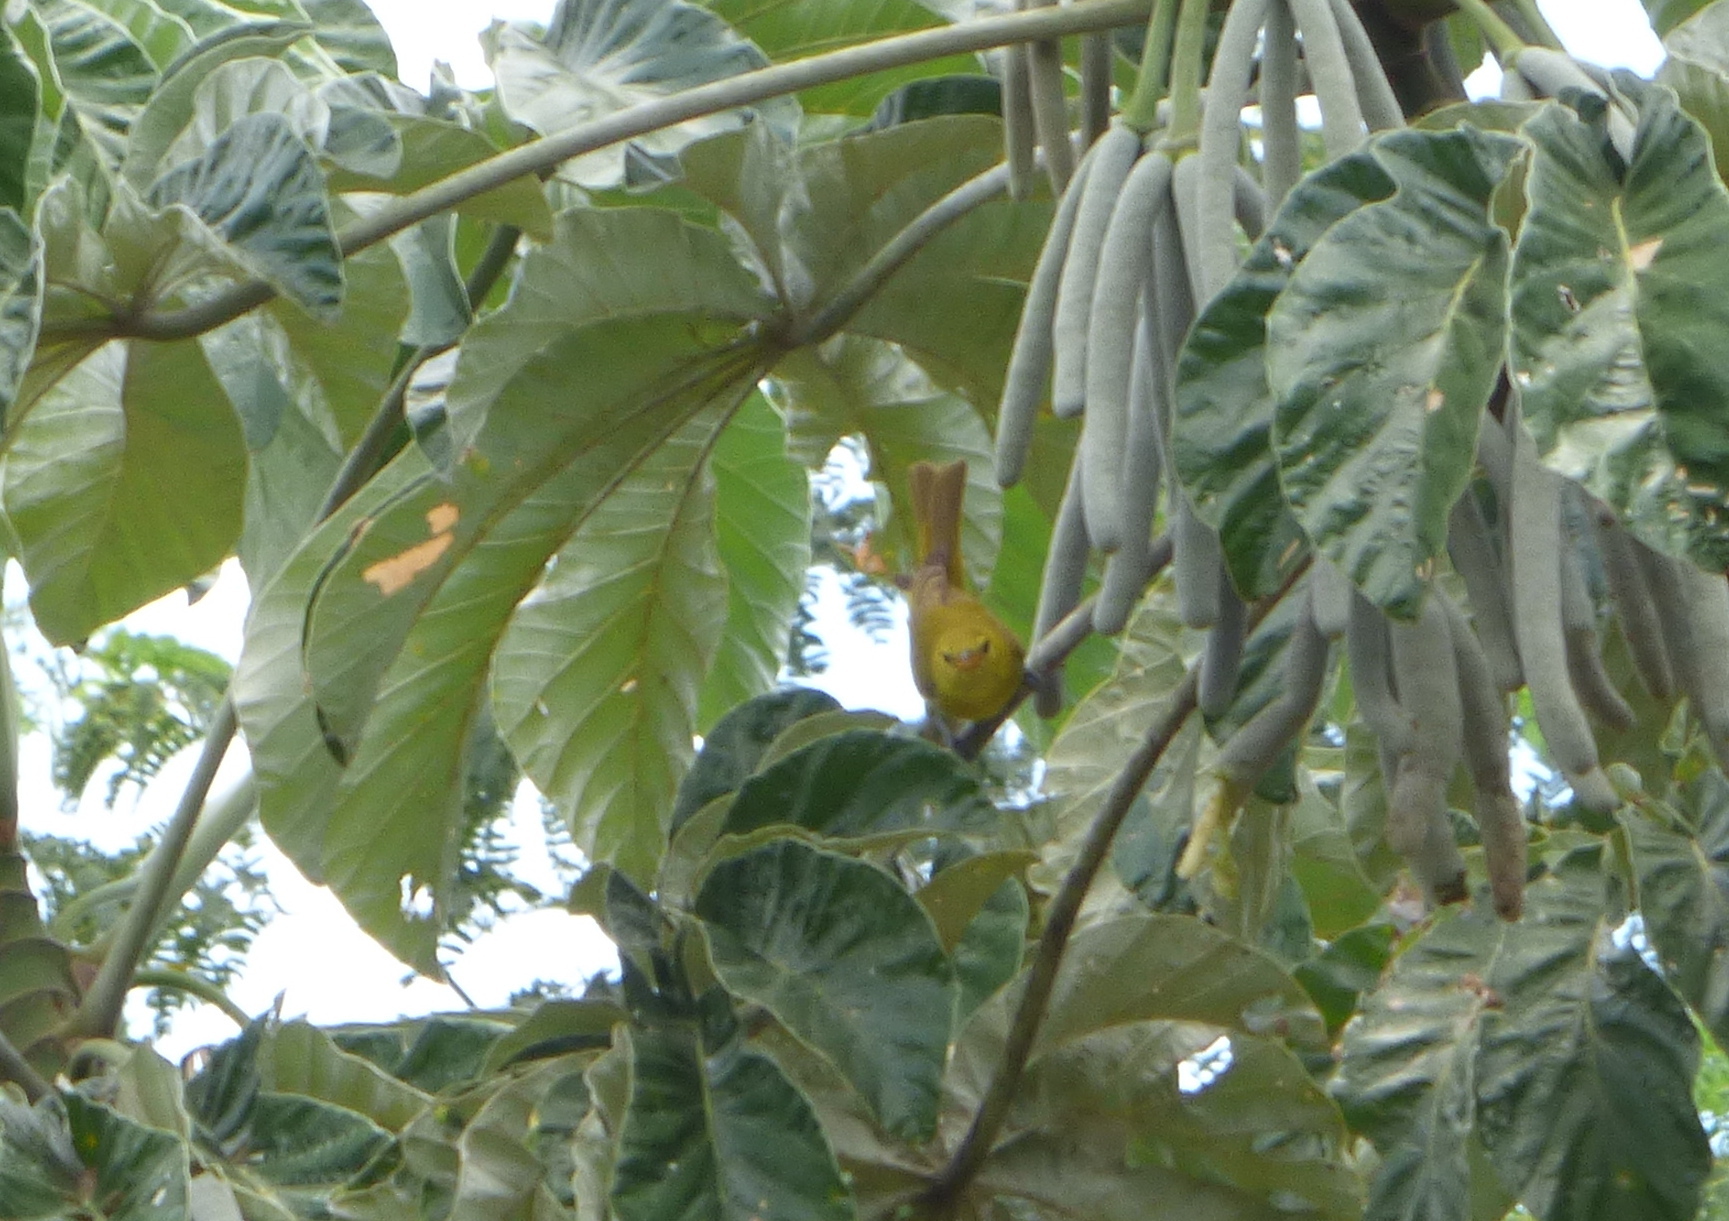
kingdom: Animalia
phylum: Chordata
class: Aves
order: Passeriformes
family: Thraupidae
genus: Hemithraupis
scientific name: Hemithraupis guira
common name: Guira tanager
